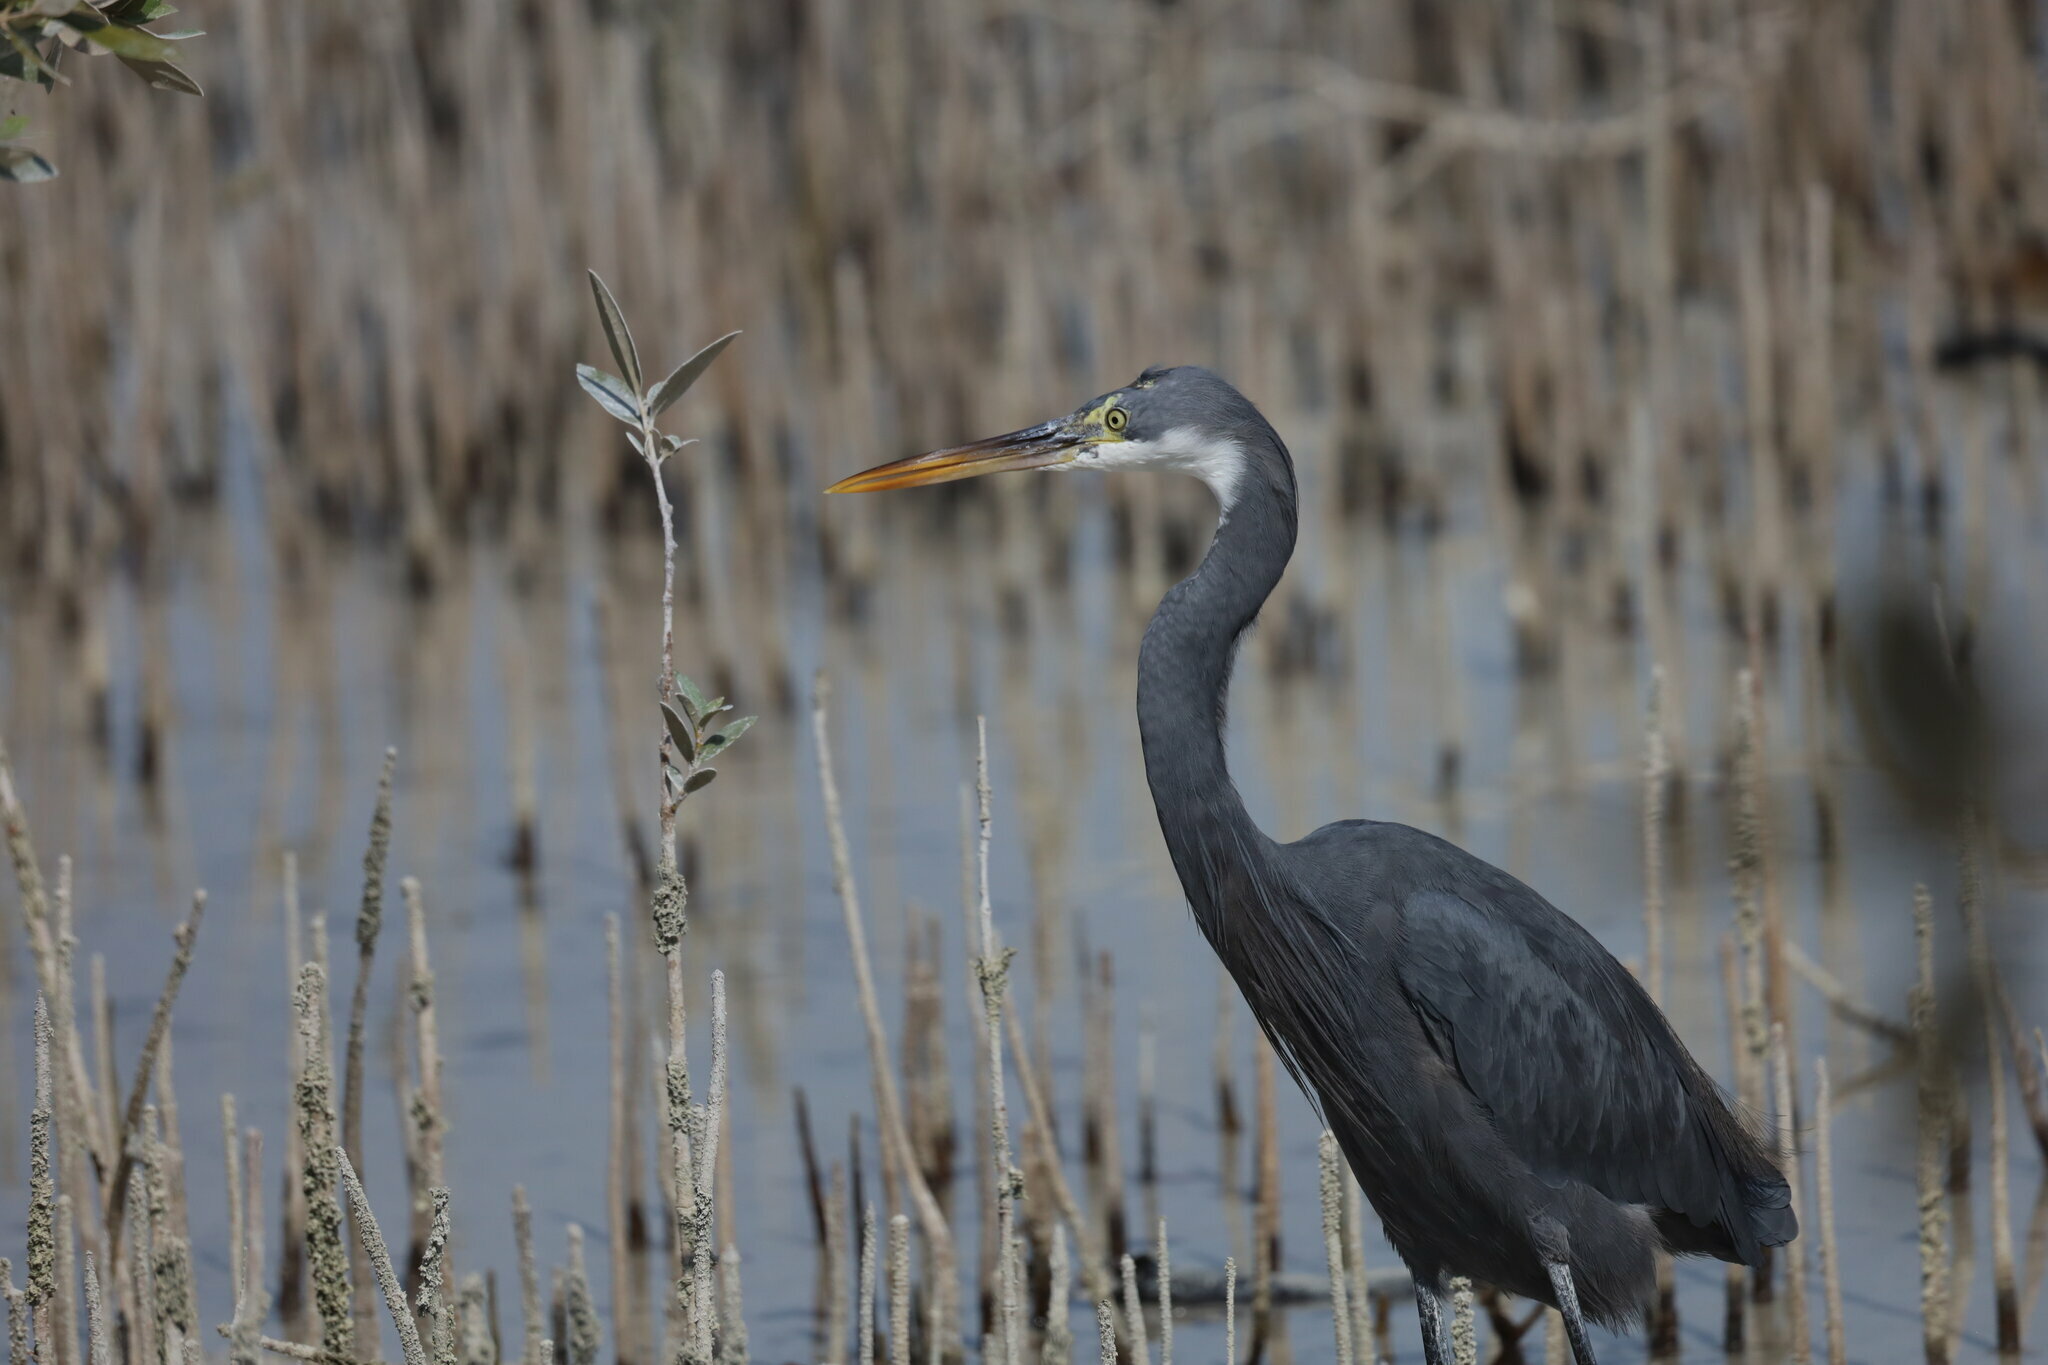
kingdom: Animalia
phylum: Chordata
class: Aves
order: Pelecaniformes
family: Ardeidae
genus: Egretta
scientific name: Egretta gularis
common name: Western reef-heron
